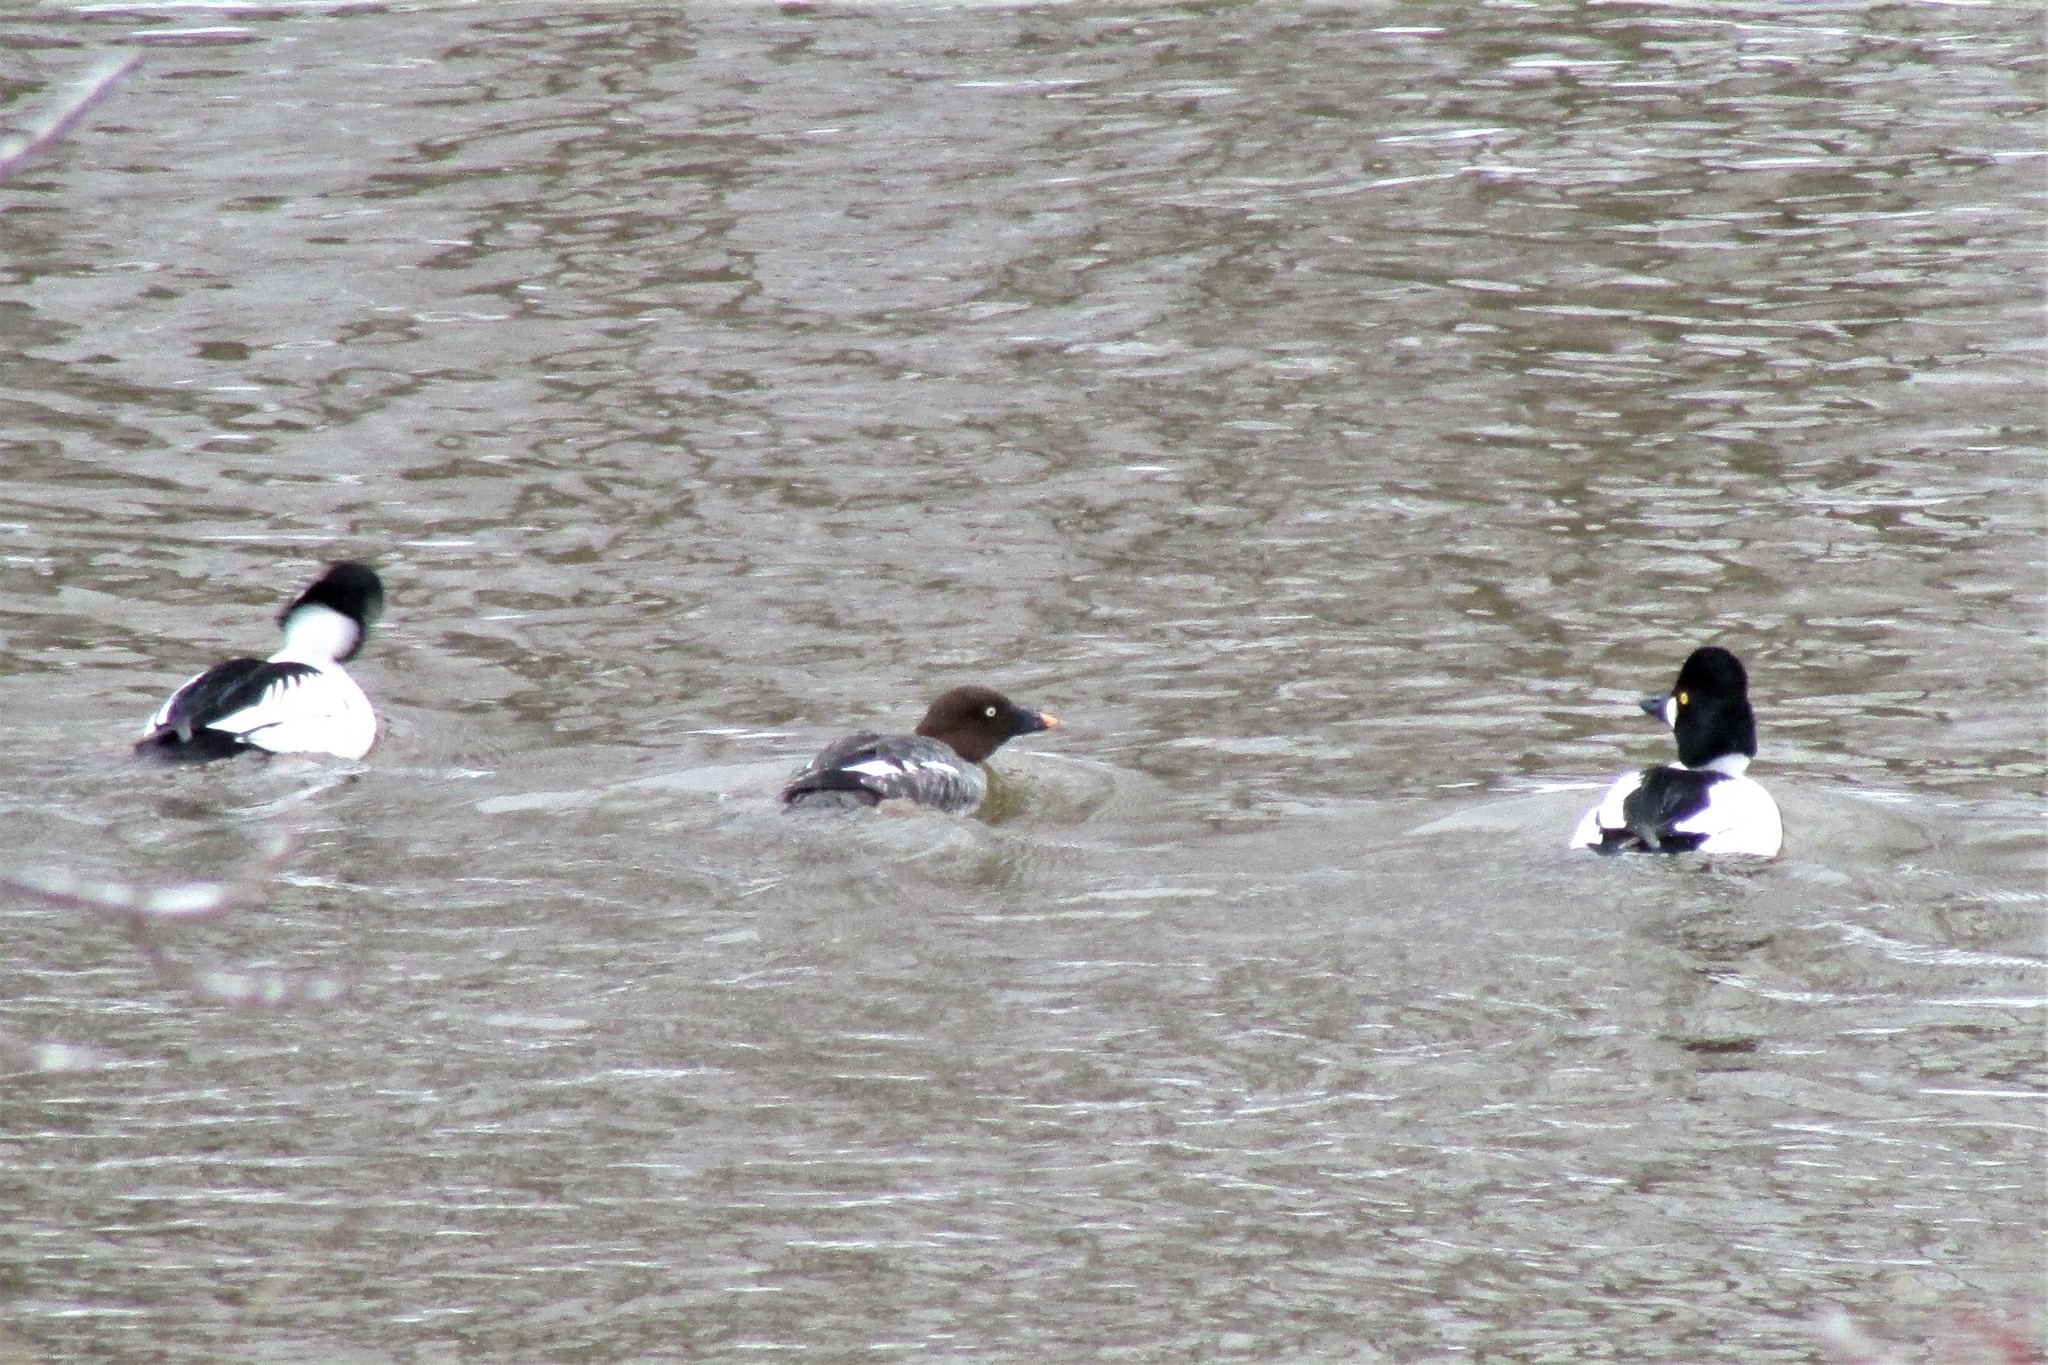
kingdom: Animalia
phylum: Chordata
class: Aves
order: Anseriformes
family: Anatidae
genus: Bucephala
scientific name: Bucephala clangula
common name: Common goldeneye
